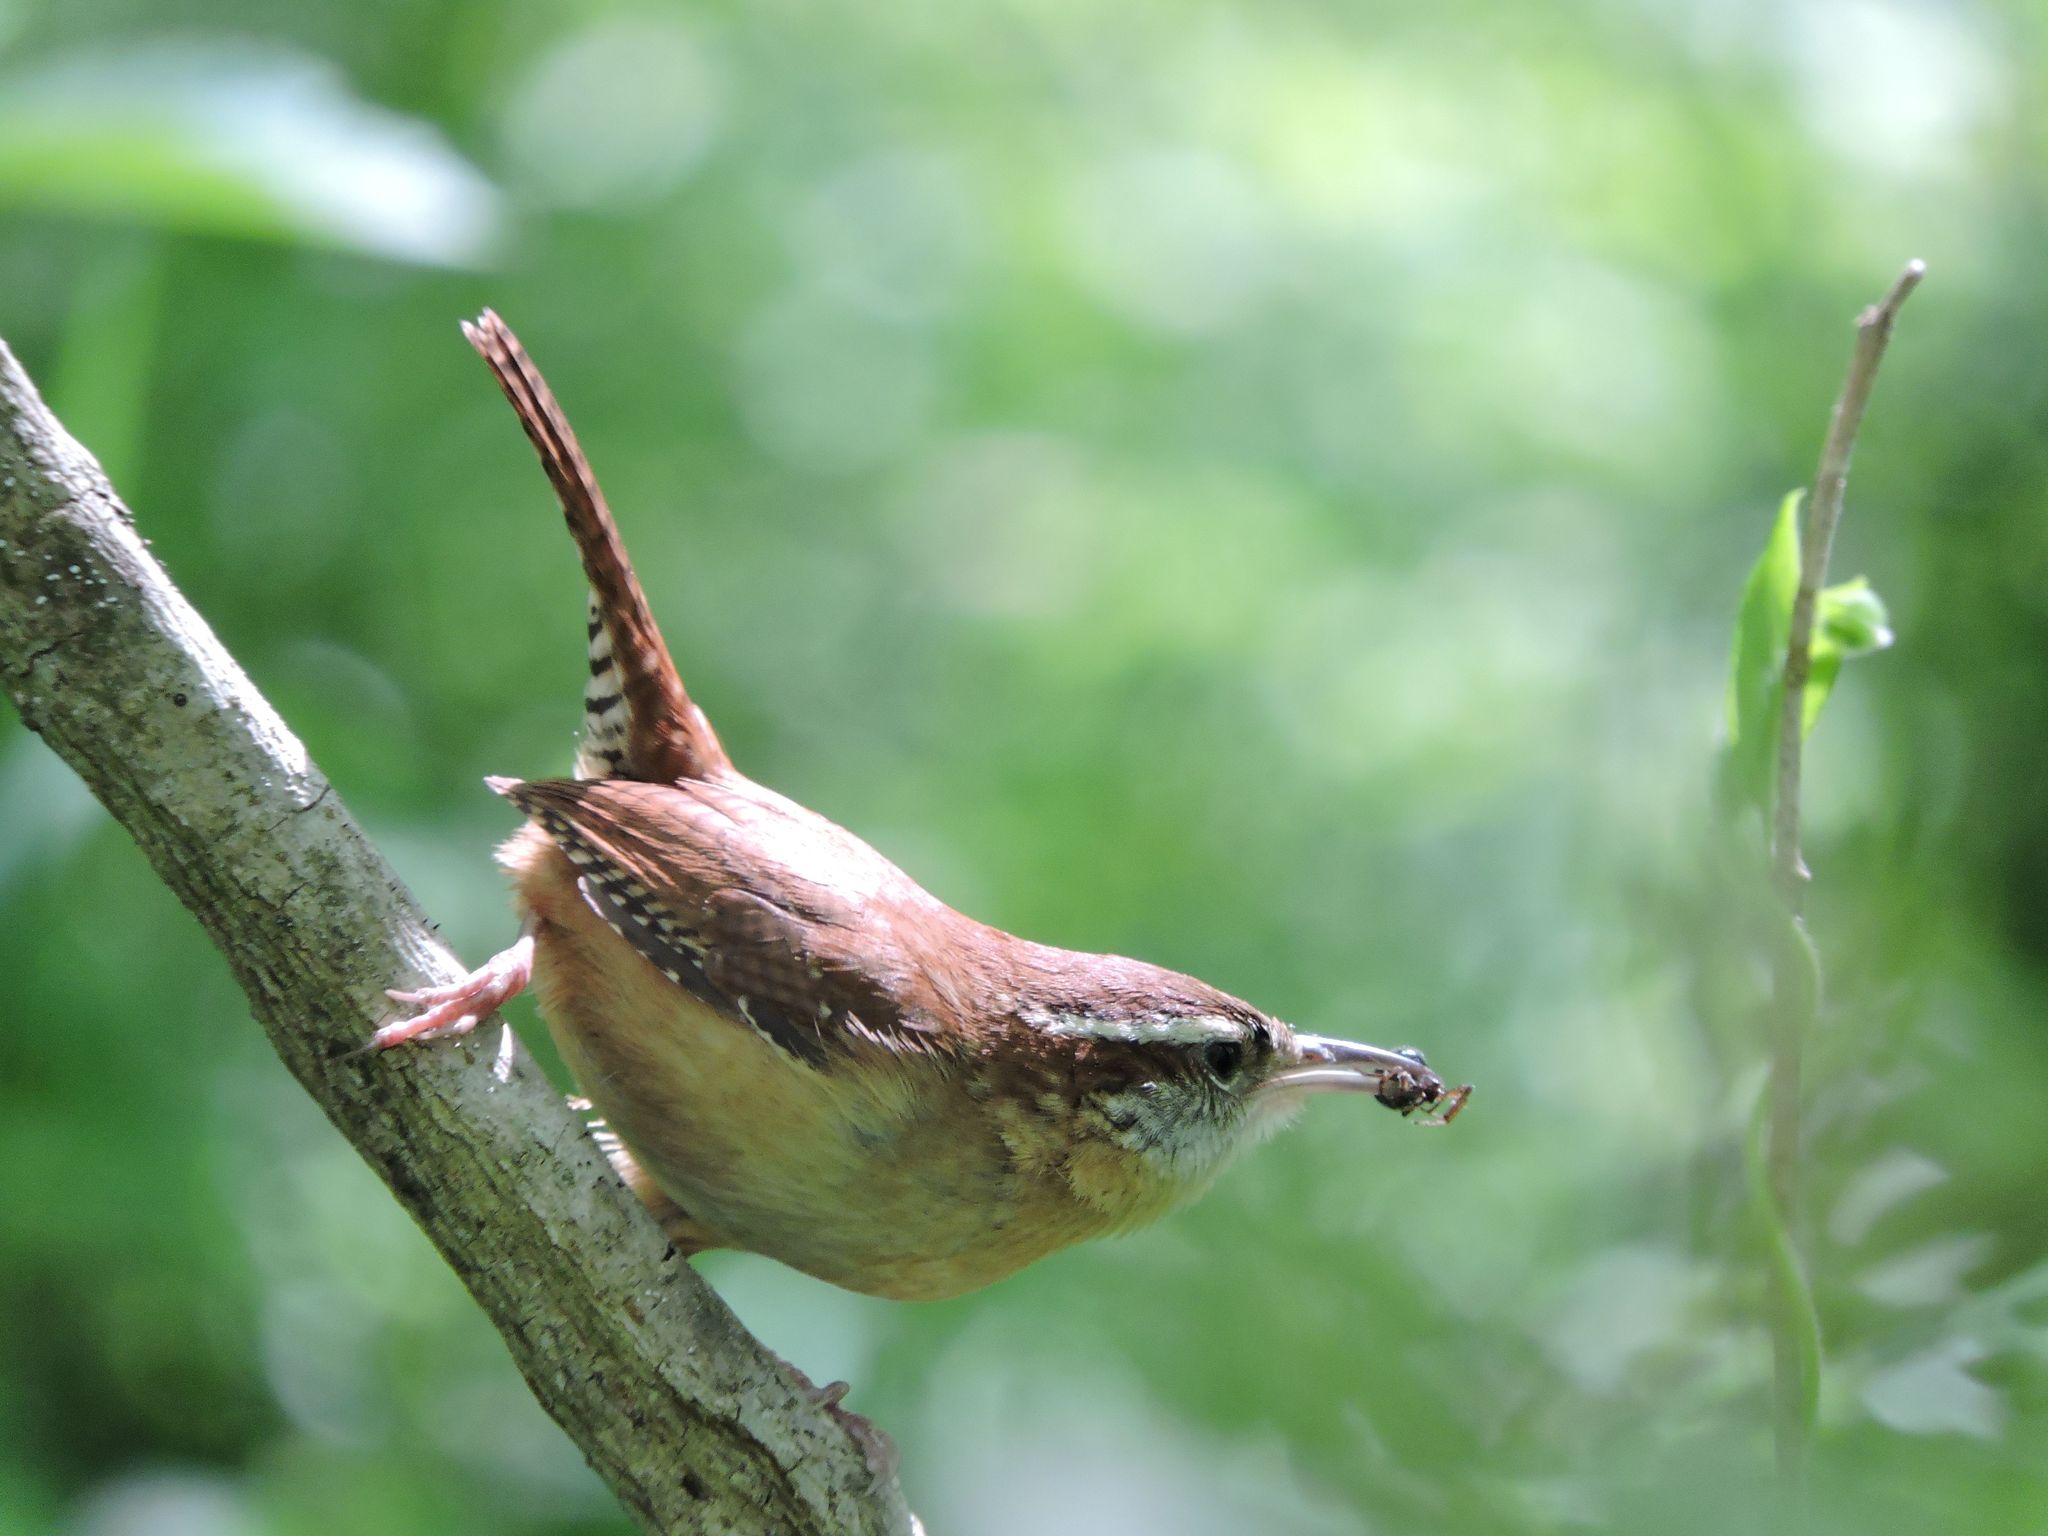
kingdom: Animalia
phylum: Chordata
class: Aves
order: Passeriformes
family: Troglodytidae
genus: Thryothorus
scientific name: Thryothorus ludovicianus
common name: Carolina wren
